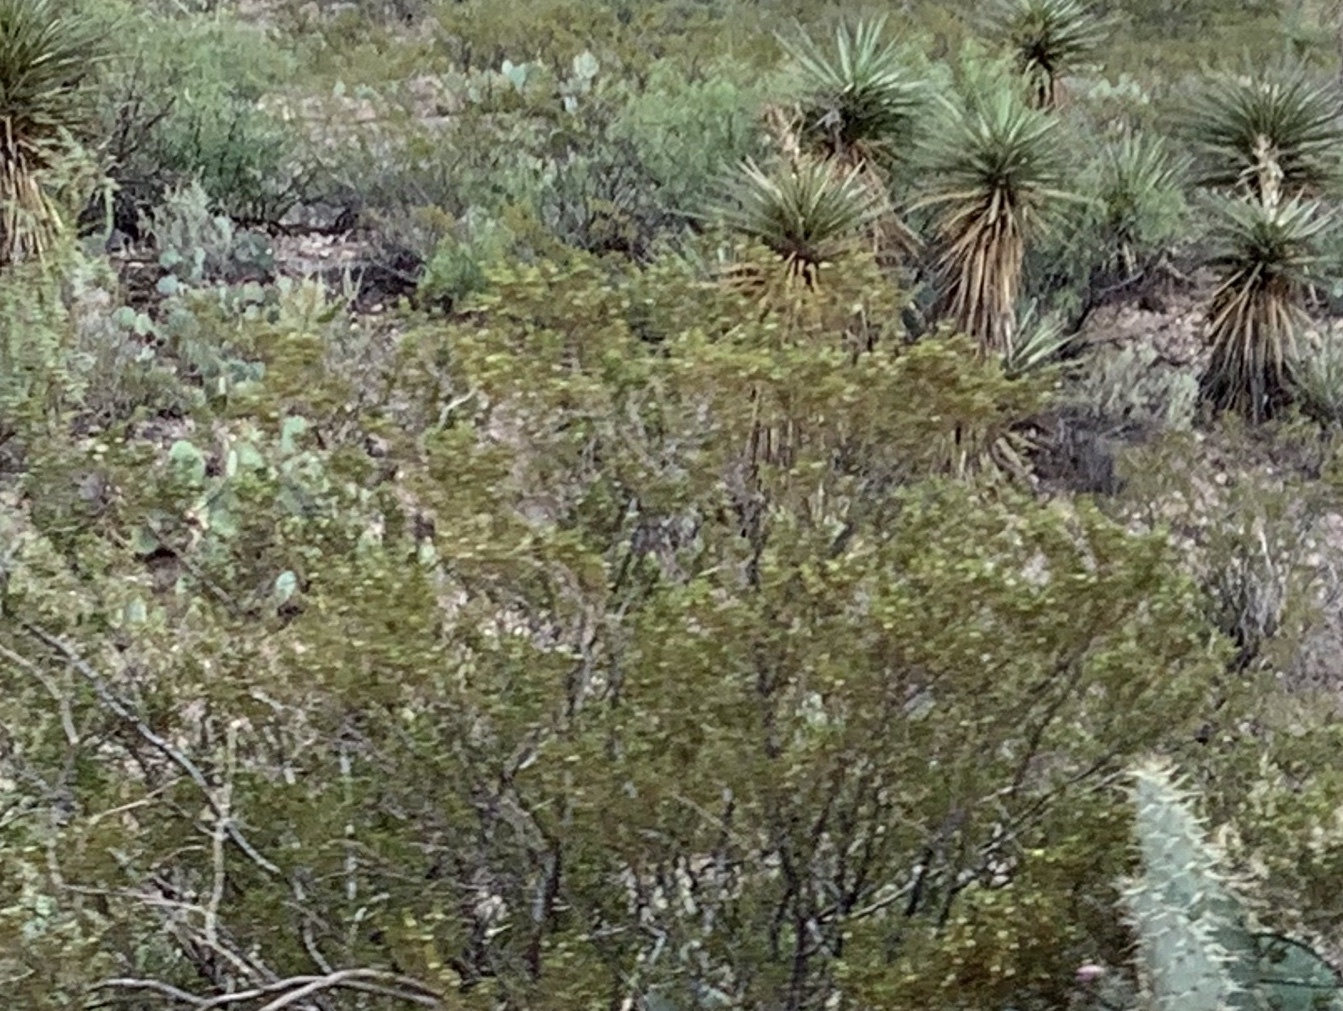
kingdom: Plantae
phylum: Tracheophyta
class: Magnoliopsida
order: Zygophyllales
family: Zygophyllaceae
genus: Larrea
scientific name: Larrea tridentata
